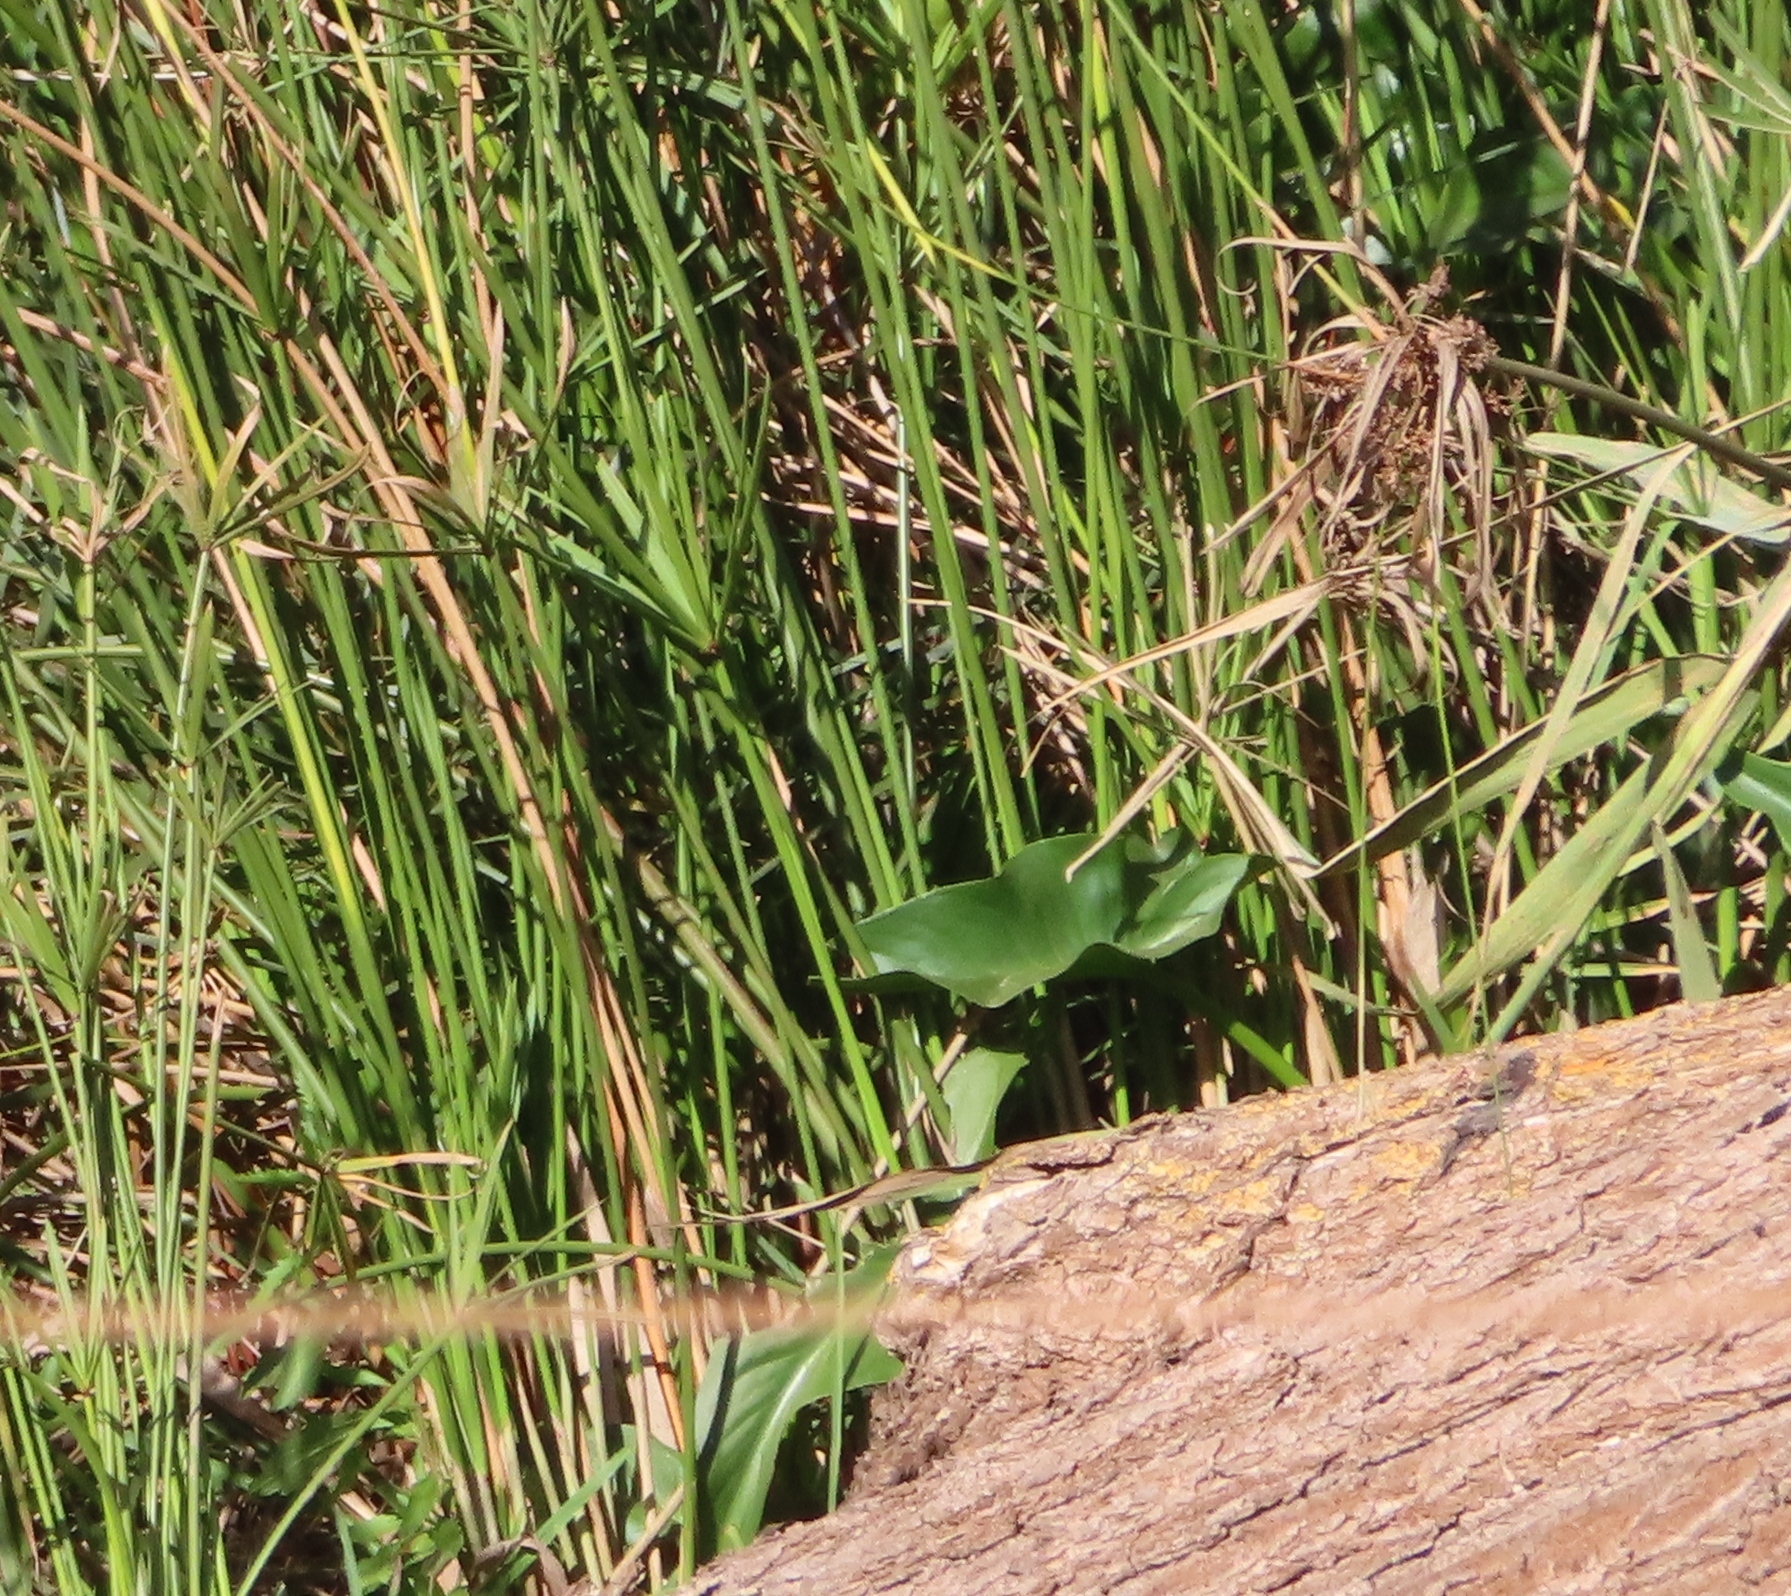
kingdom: Plantae
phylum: Tracheophyta
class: Liliopsida
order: Alismatales
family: Araceae
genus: Zantedeschia
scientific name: Zantedeschia aethiopica
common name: Altar-lily
